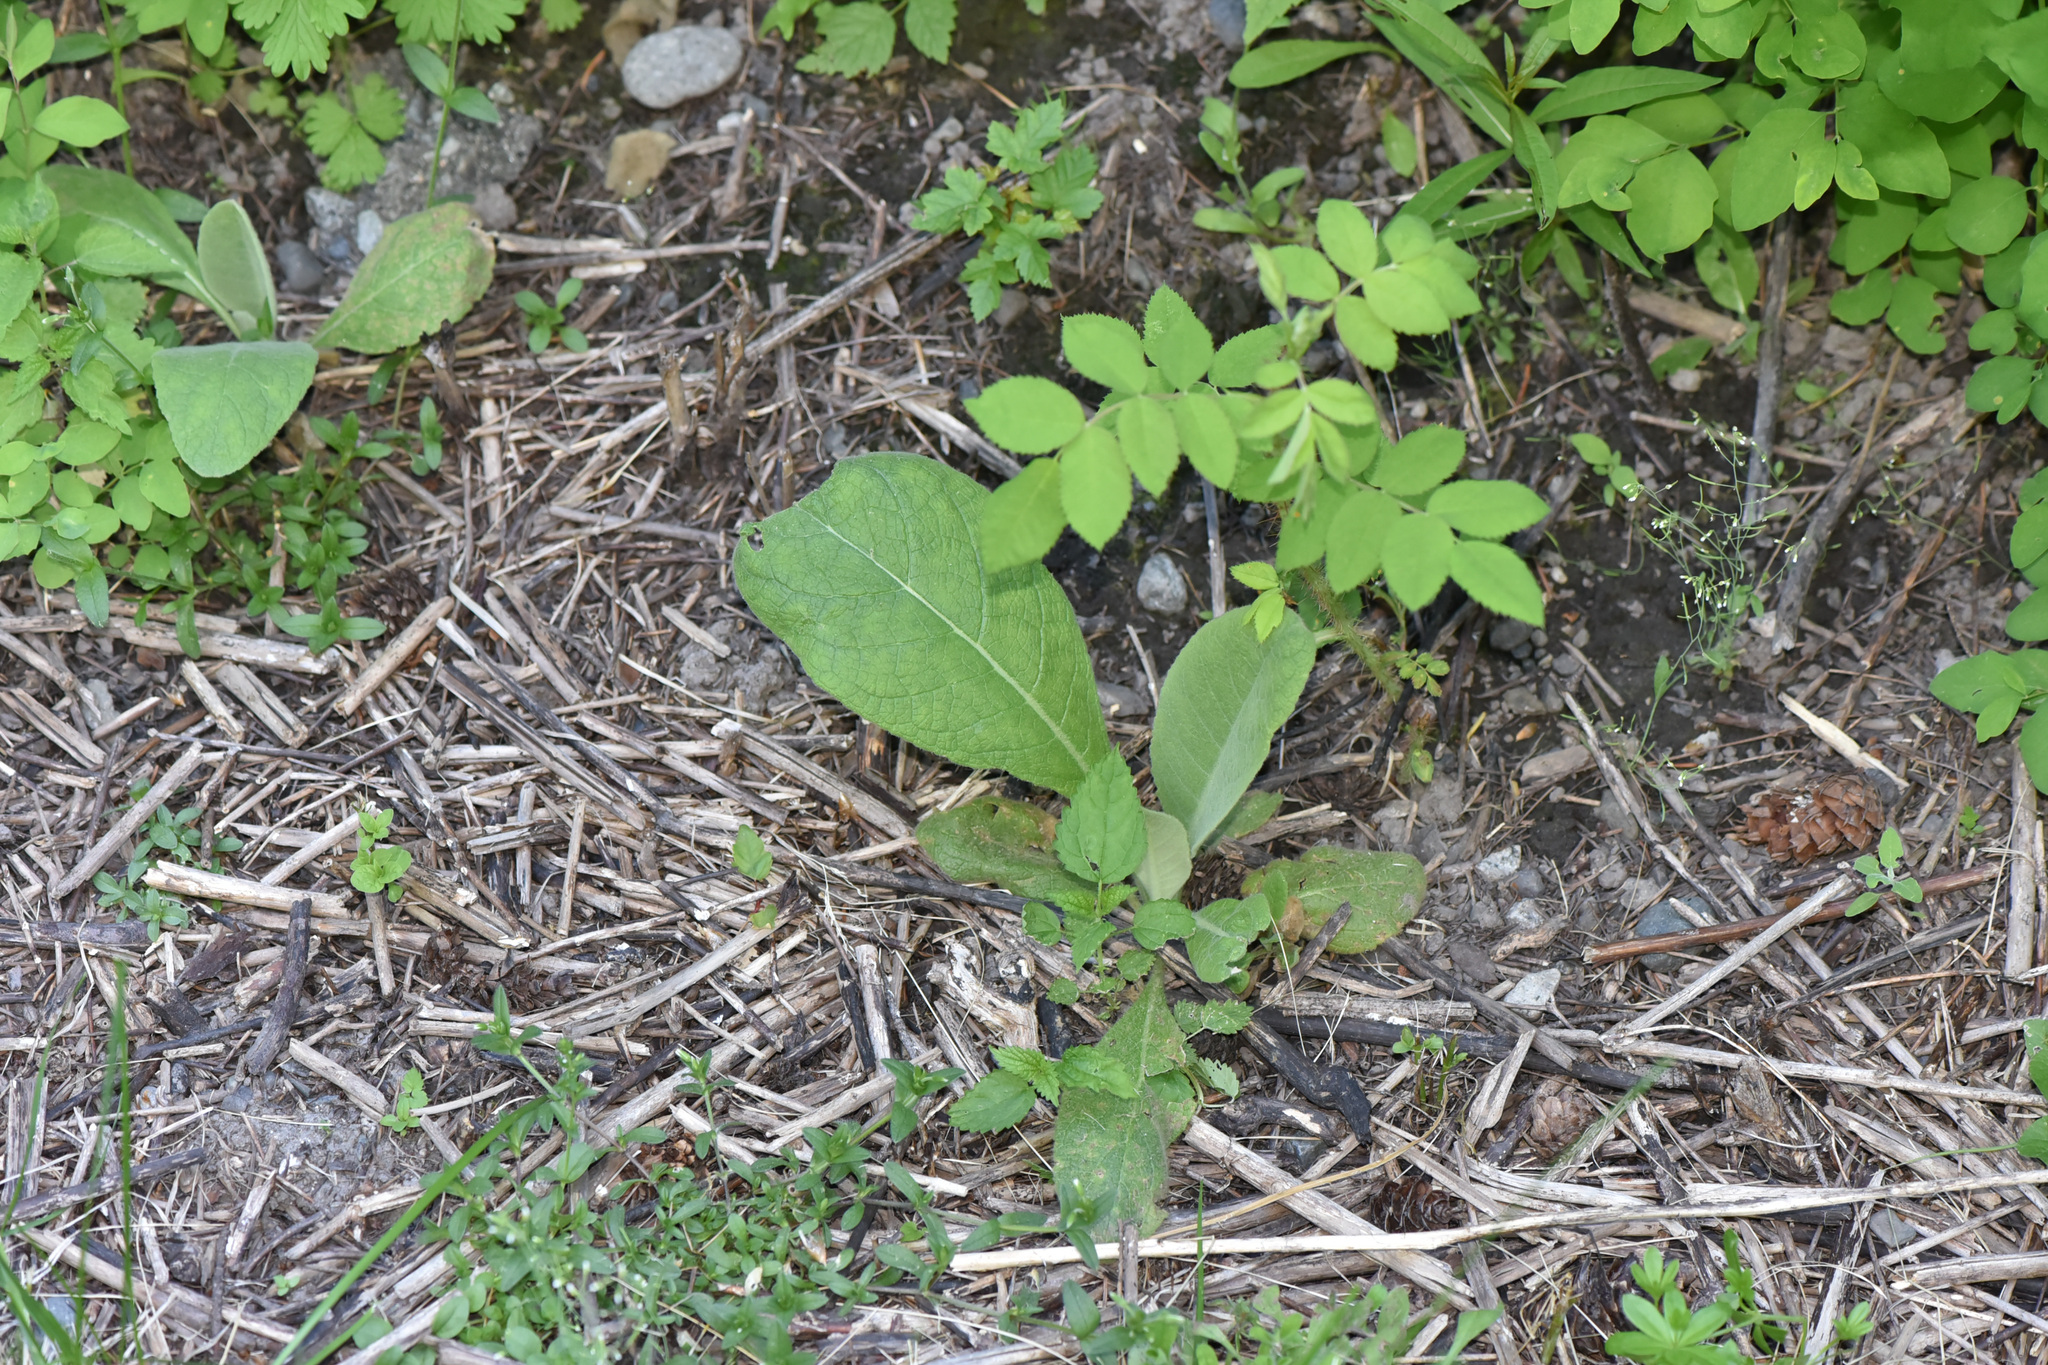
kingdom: Plantae
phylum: Tracheophyta
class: Magnoliopsida
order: Lamiales
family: Scrophulariaceae
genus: Verbascum
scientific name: Verbascum thapsus
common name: Common mullein
